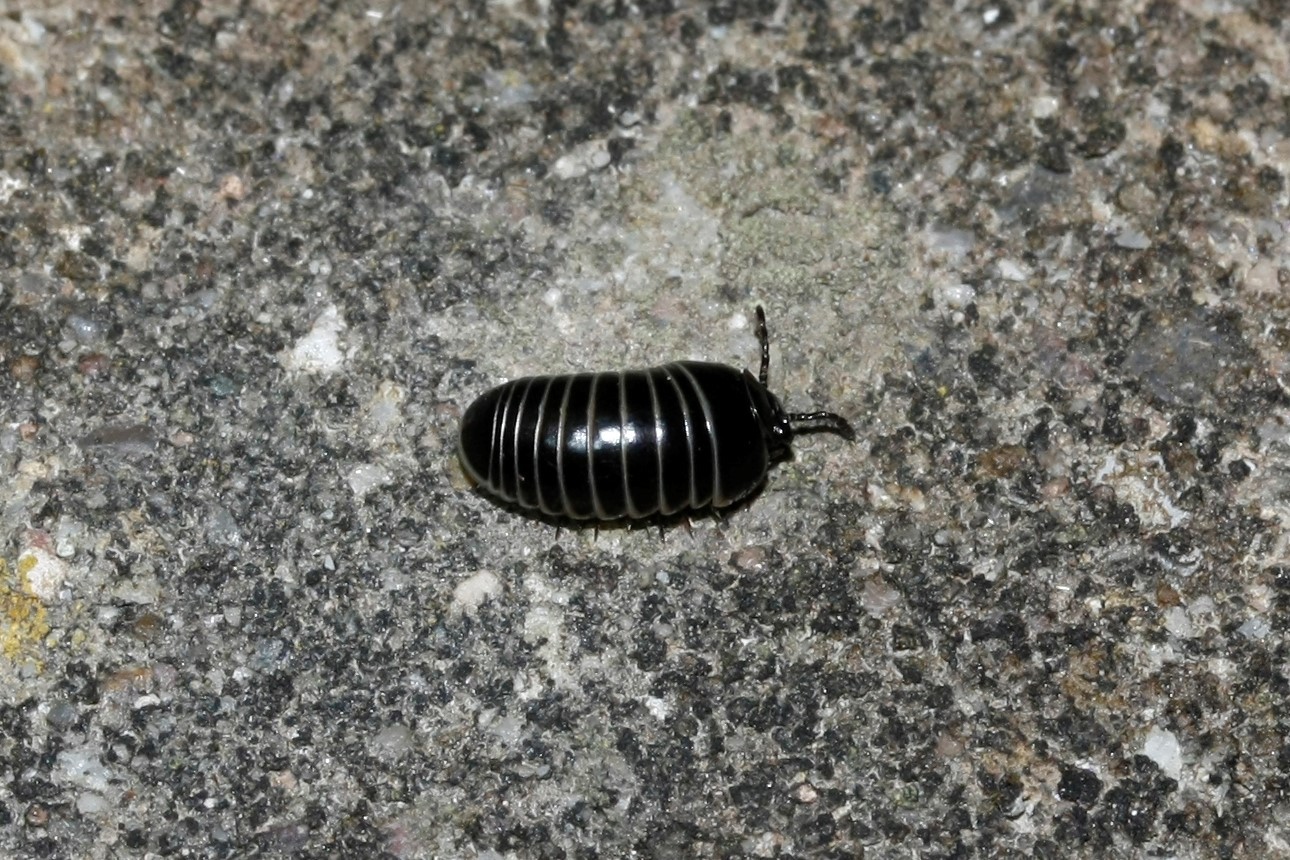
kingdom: Animalia
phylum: Arthropoda
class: Diplopoda
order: Glomerida
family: Glomeridae
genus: Glomeris
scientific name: Glomeris marginata
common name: Bordered pill millipede
